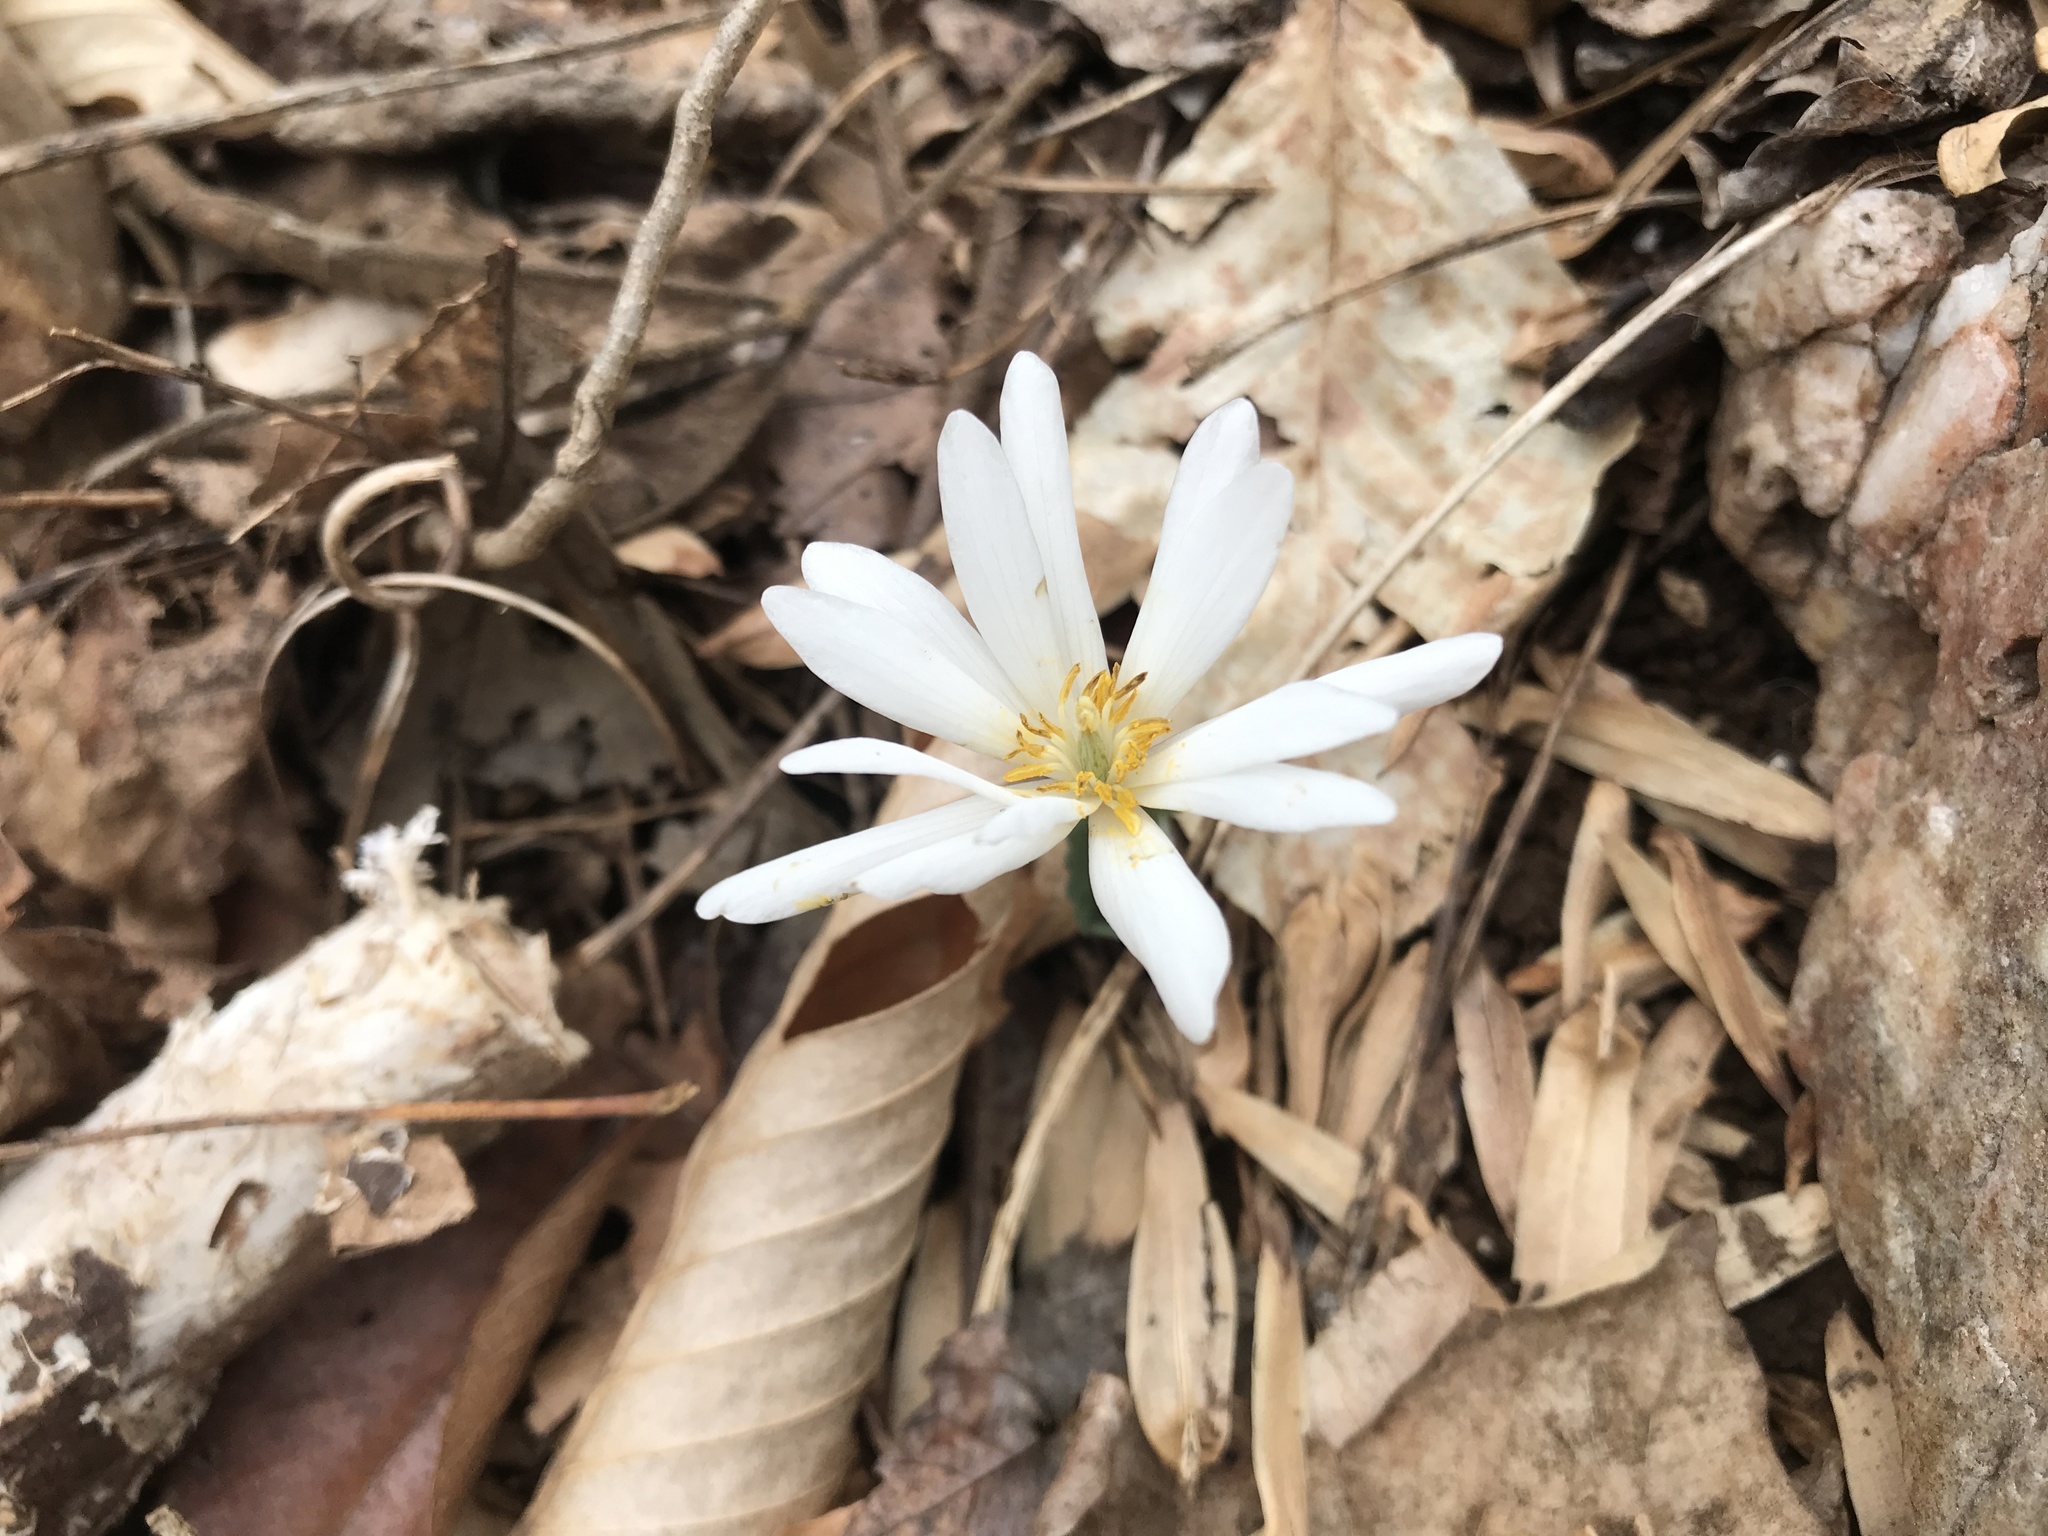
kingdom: Plantae
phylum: Tracheophyta
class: Magnoliopsida
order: Ranunculales
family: Papaveraceae
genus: Sanguinaria
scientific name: Sanguinaria canadensis
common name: Bloodroot
